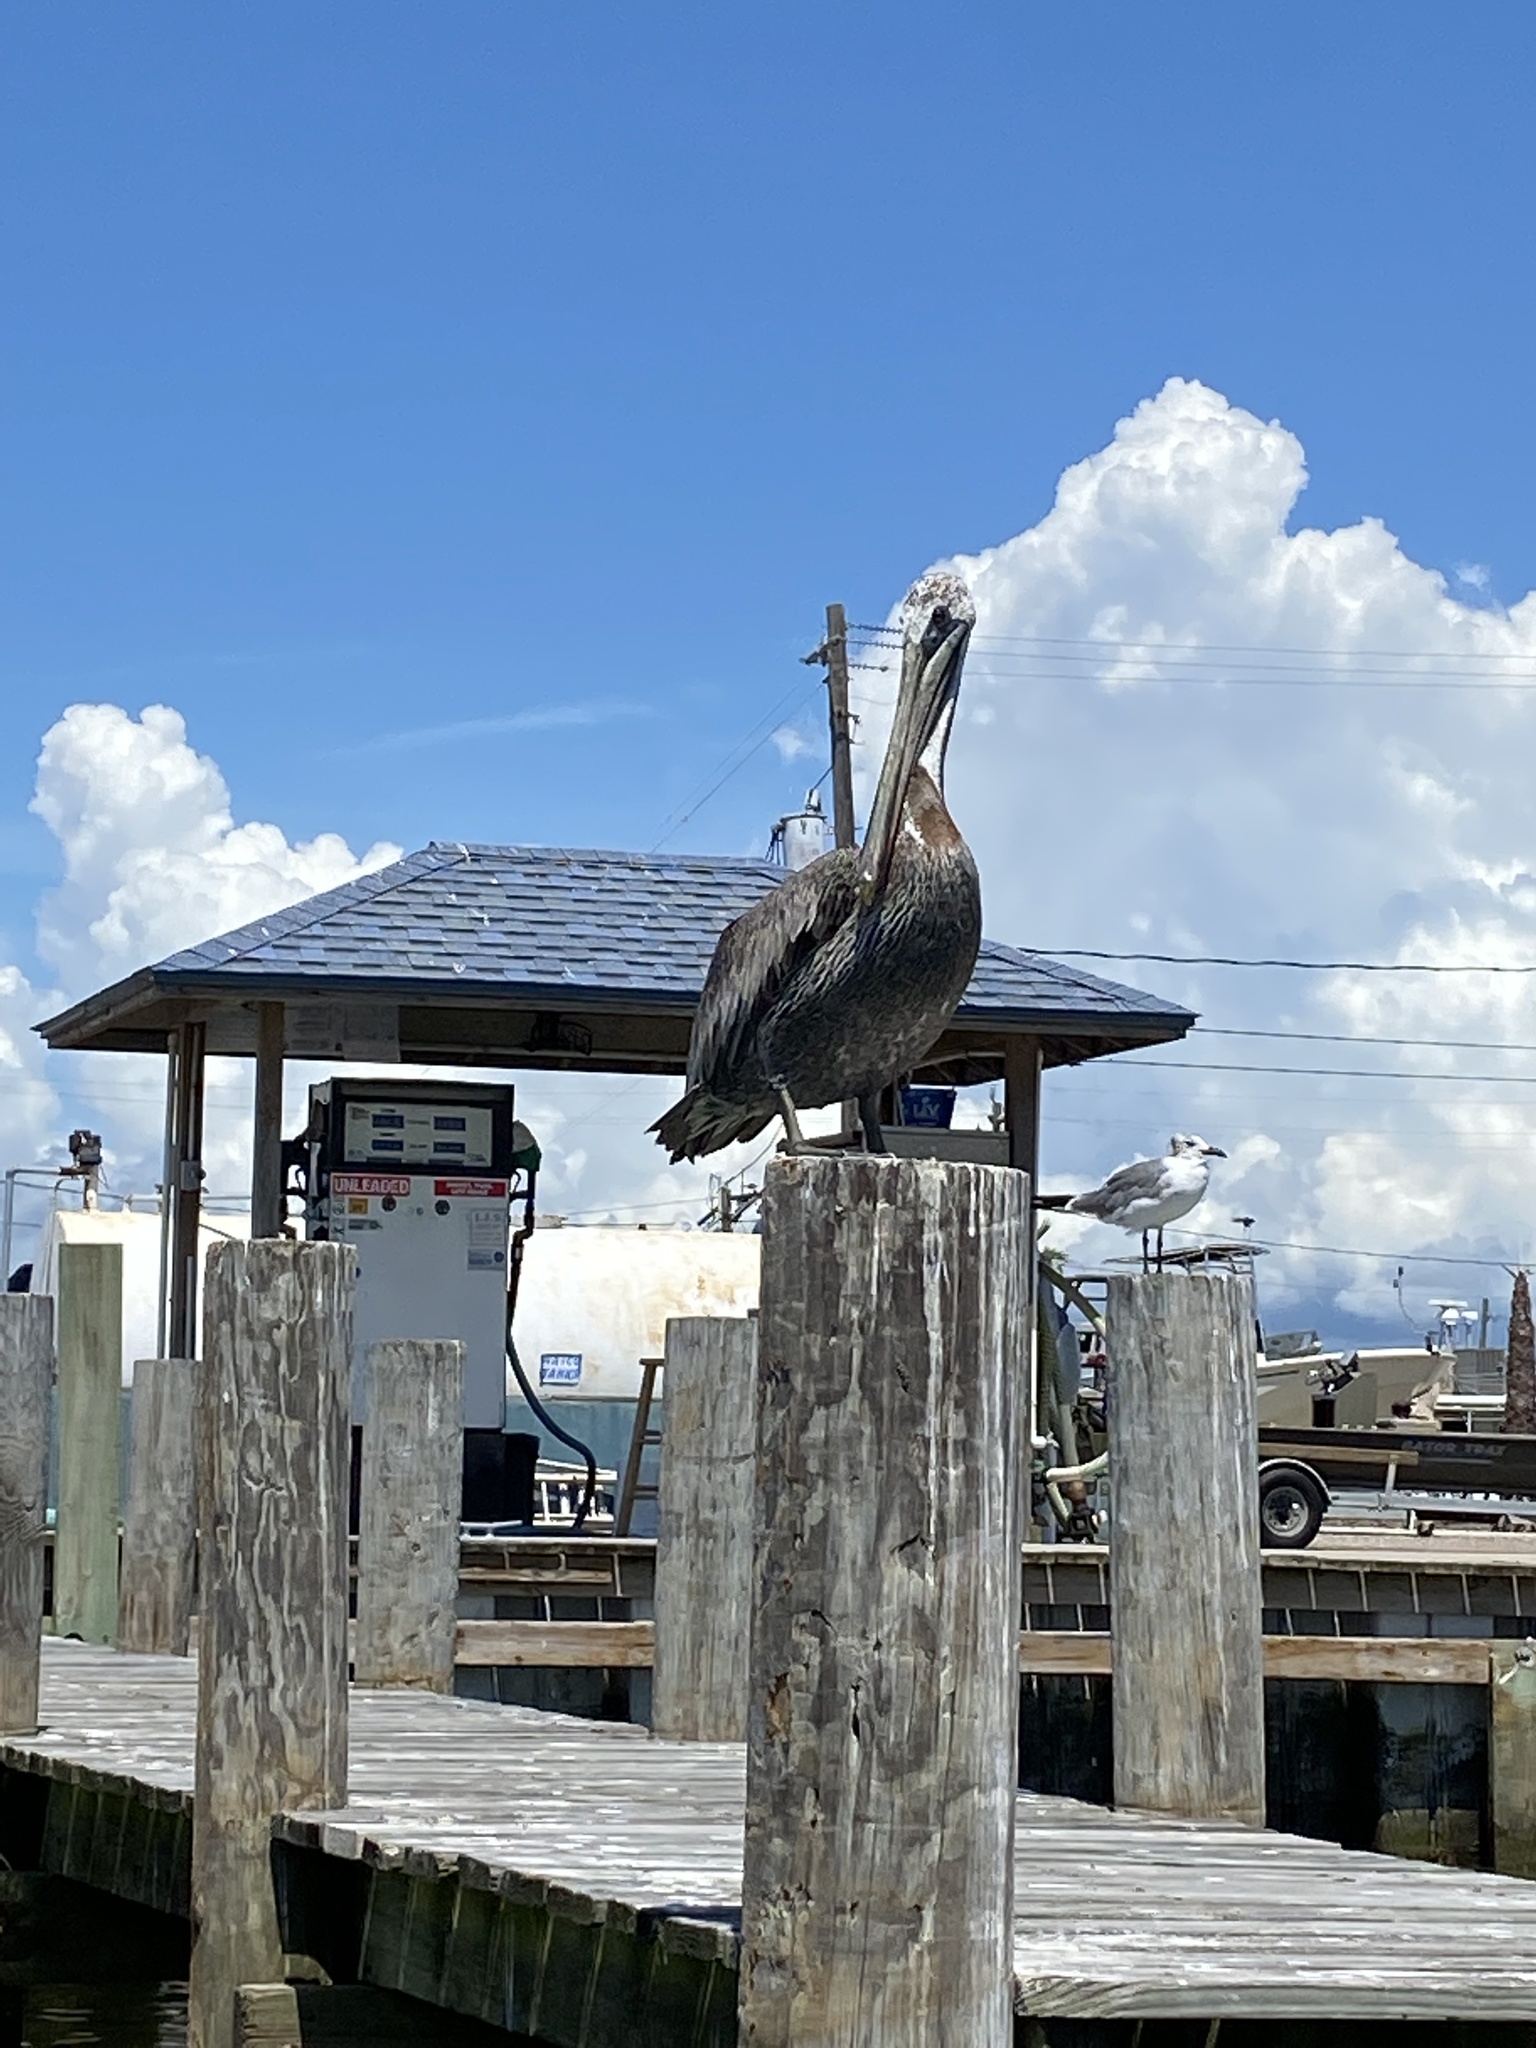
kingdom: Animalia
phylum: Chordata
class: Aves
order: Pelecaniformes
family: Pelecanidae
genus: Pelecanus
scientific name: Pelecanus occidentalis
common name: Brown pelican
